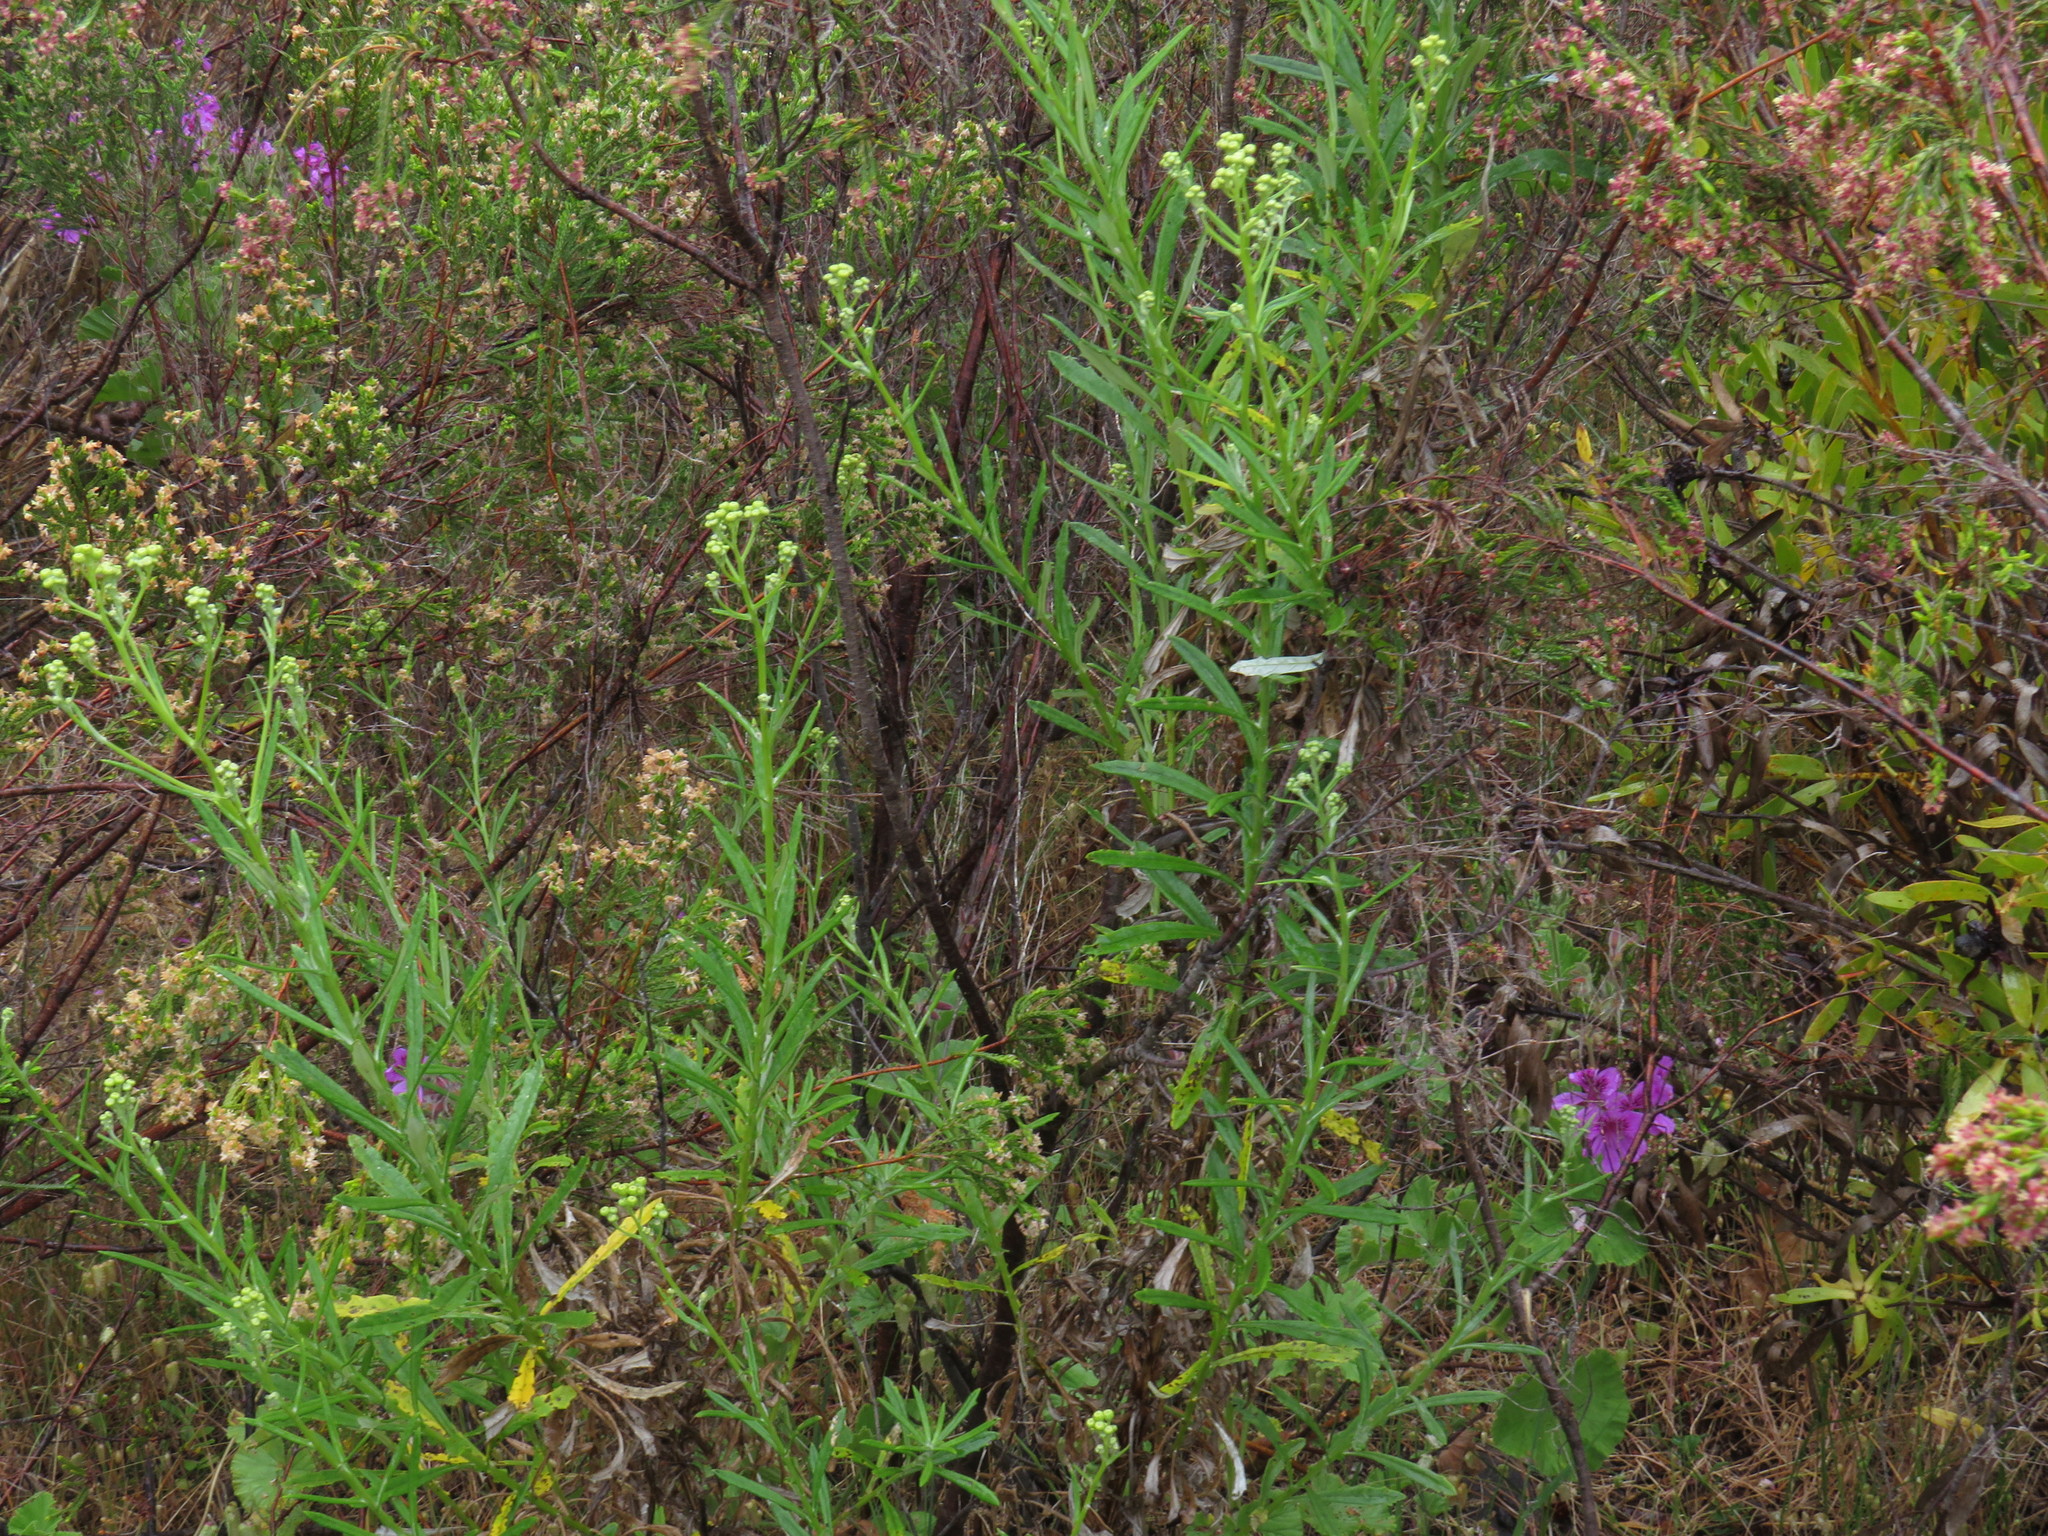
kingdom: Plantae
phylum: Tracheophyta
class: Magnoliopsida
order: Asterales
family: Asteraceae
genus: Senecio
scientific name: Senecio pterophorus
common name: Shoddy ragwort
